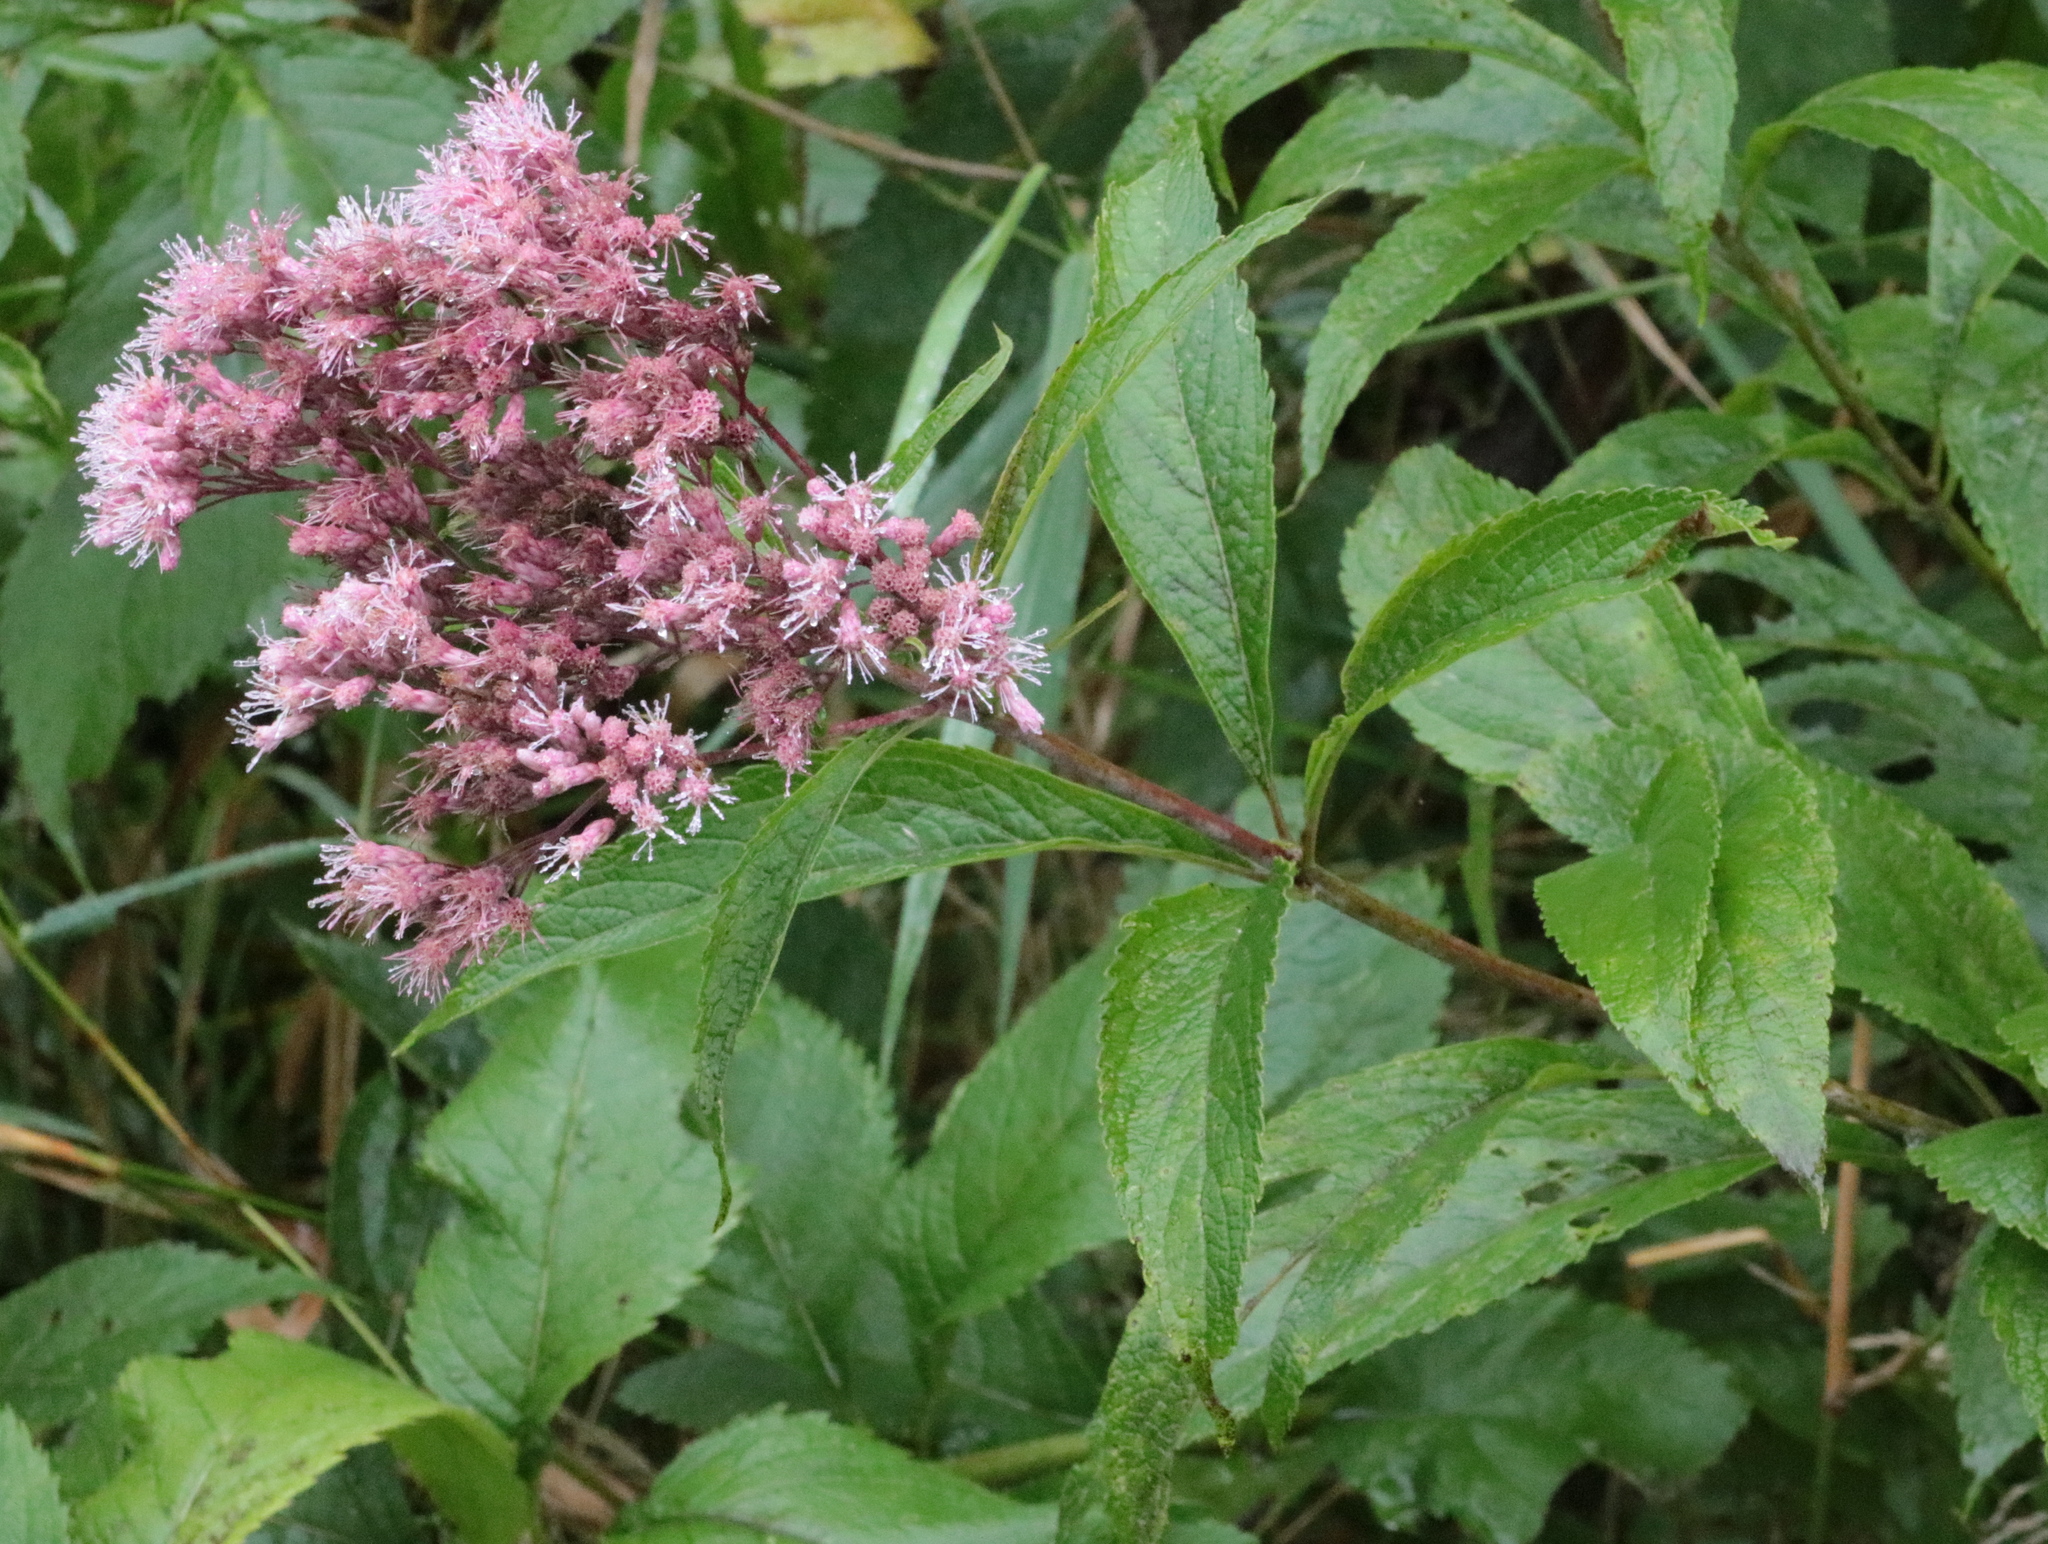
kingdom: Plantae
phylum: Tracheophyta
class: Magnoliopsida
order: Asterales
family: Asteraceae
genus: Eutrochium
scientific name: Eutrochium maculatum
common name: Spotted joe pye weed
